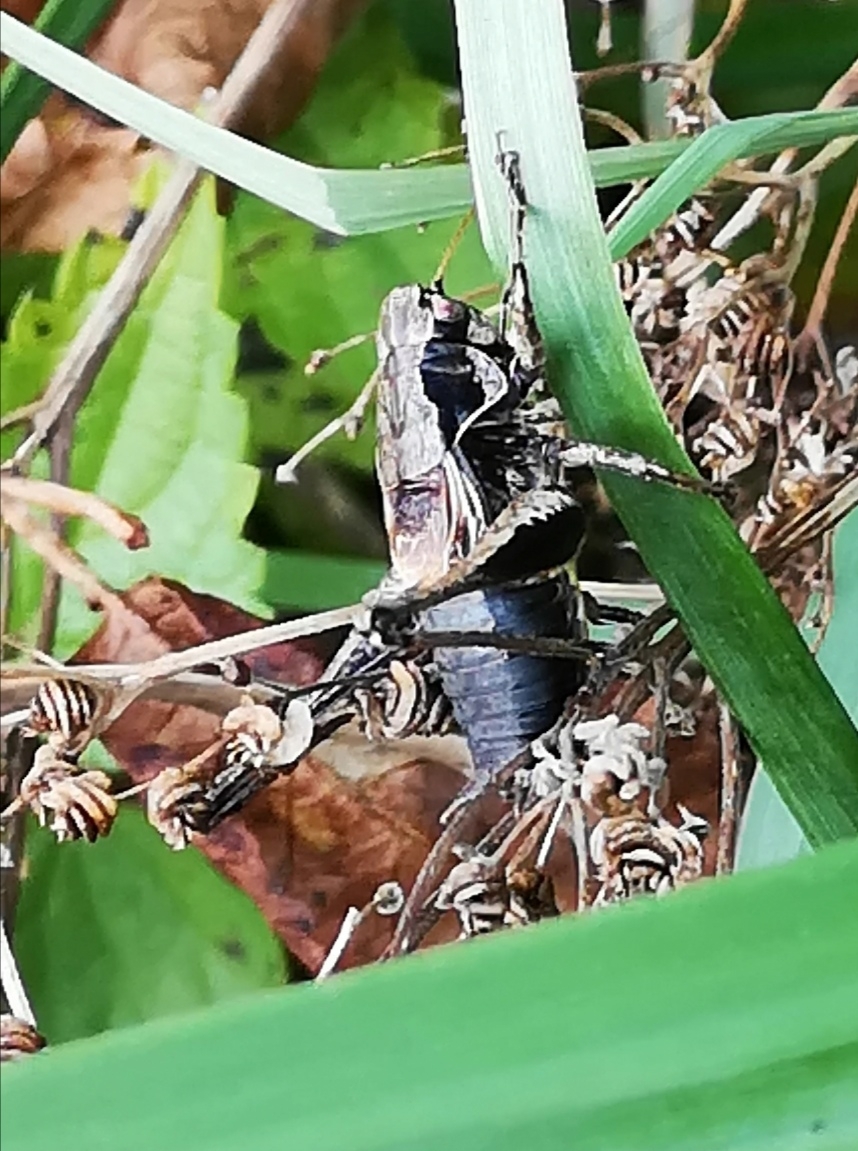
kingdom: Animalia
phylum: Arthropoda
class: Insecta
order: Orthoptera
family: Tettigoniidae
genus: Pholidoptera
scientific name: Pholidoptera griseoaptera
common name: Dark bush-cricket
